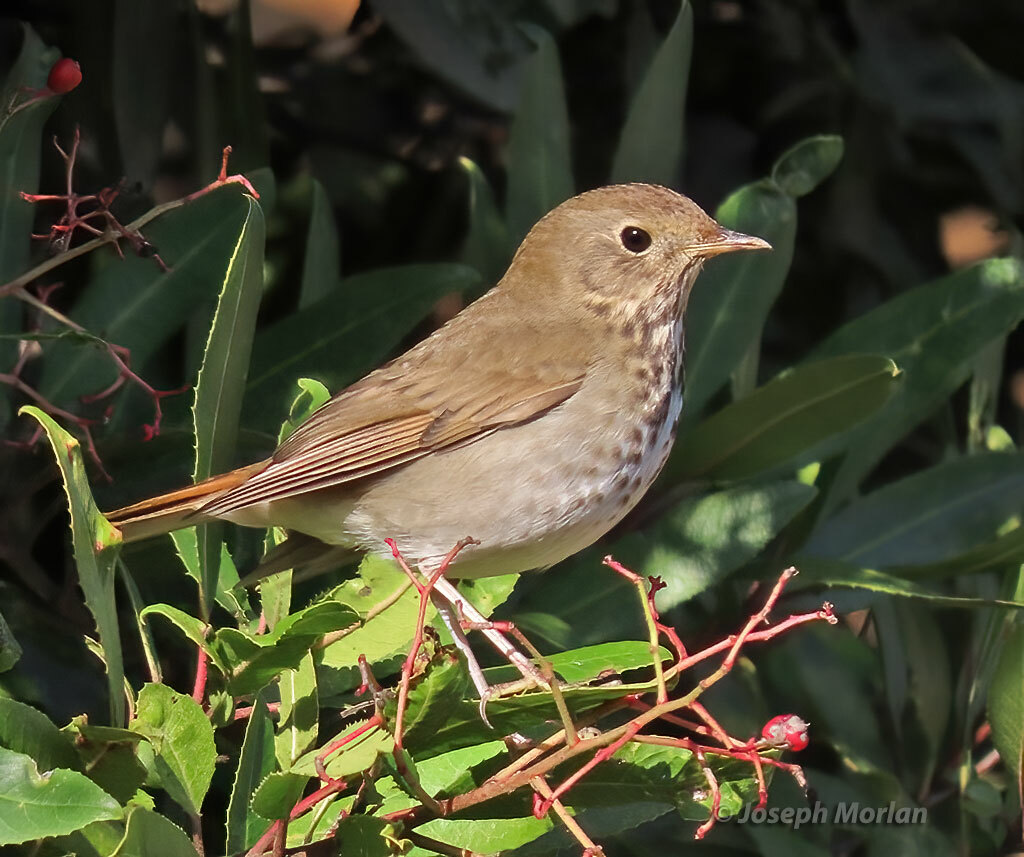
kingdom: Animalia
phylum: Chordata
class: Aves
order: Passeriformes
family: Turdidae
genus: Catharus
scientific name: Catharus guttatus
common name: Hermit thrush
